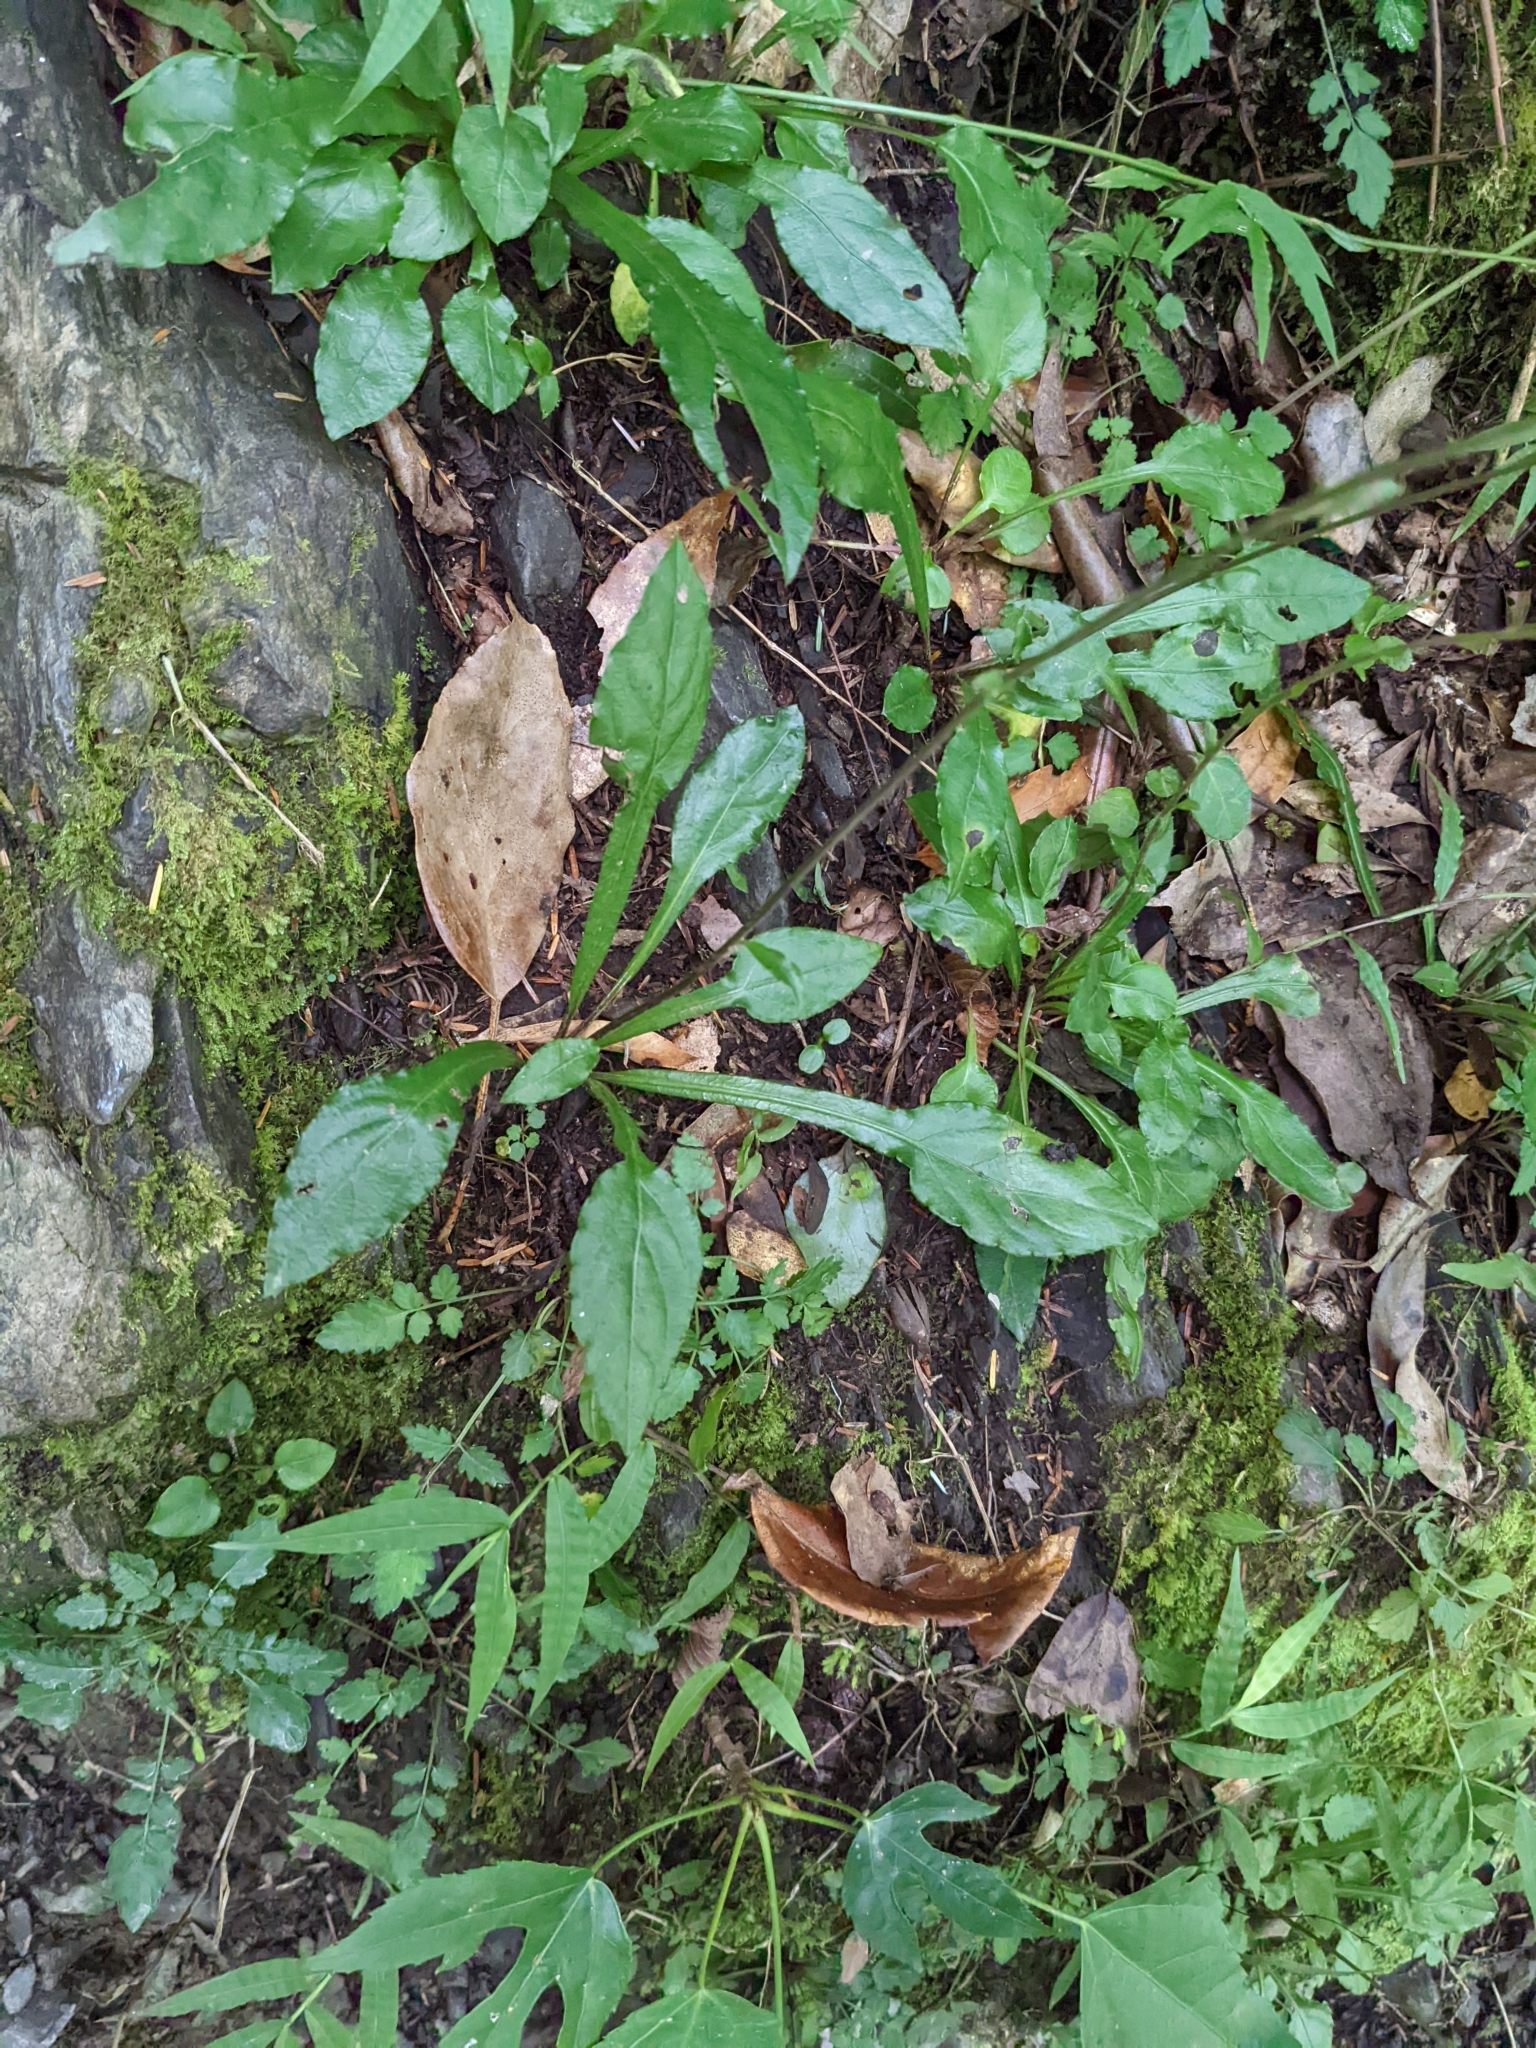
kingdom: Plantae
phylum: Tracheophyta
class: Magnoliopsida
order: Asterales
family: Asteraceae
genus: Ainsliaea
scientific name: Ainsliaea latifolia
